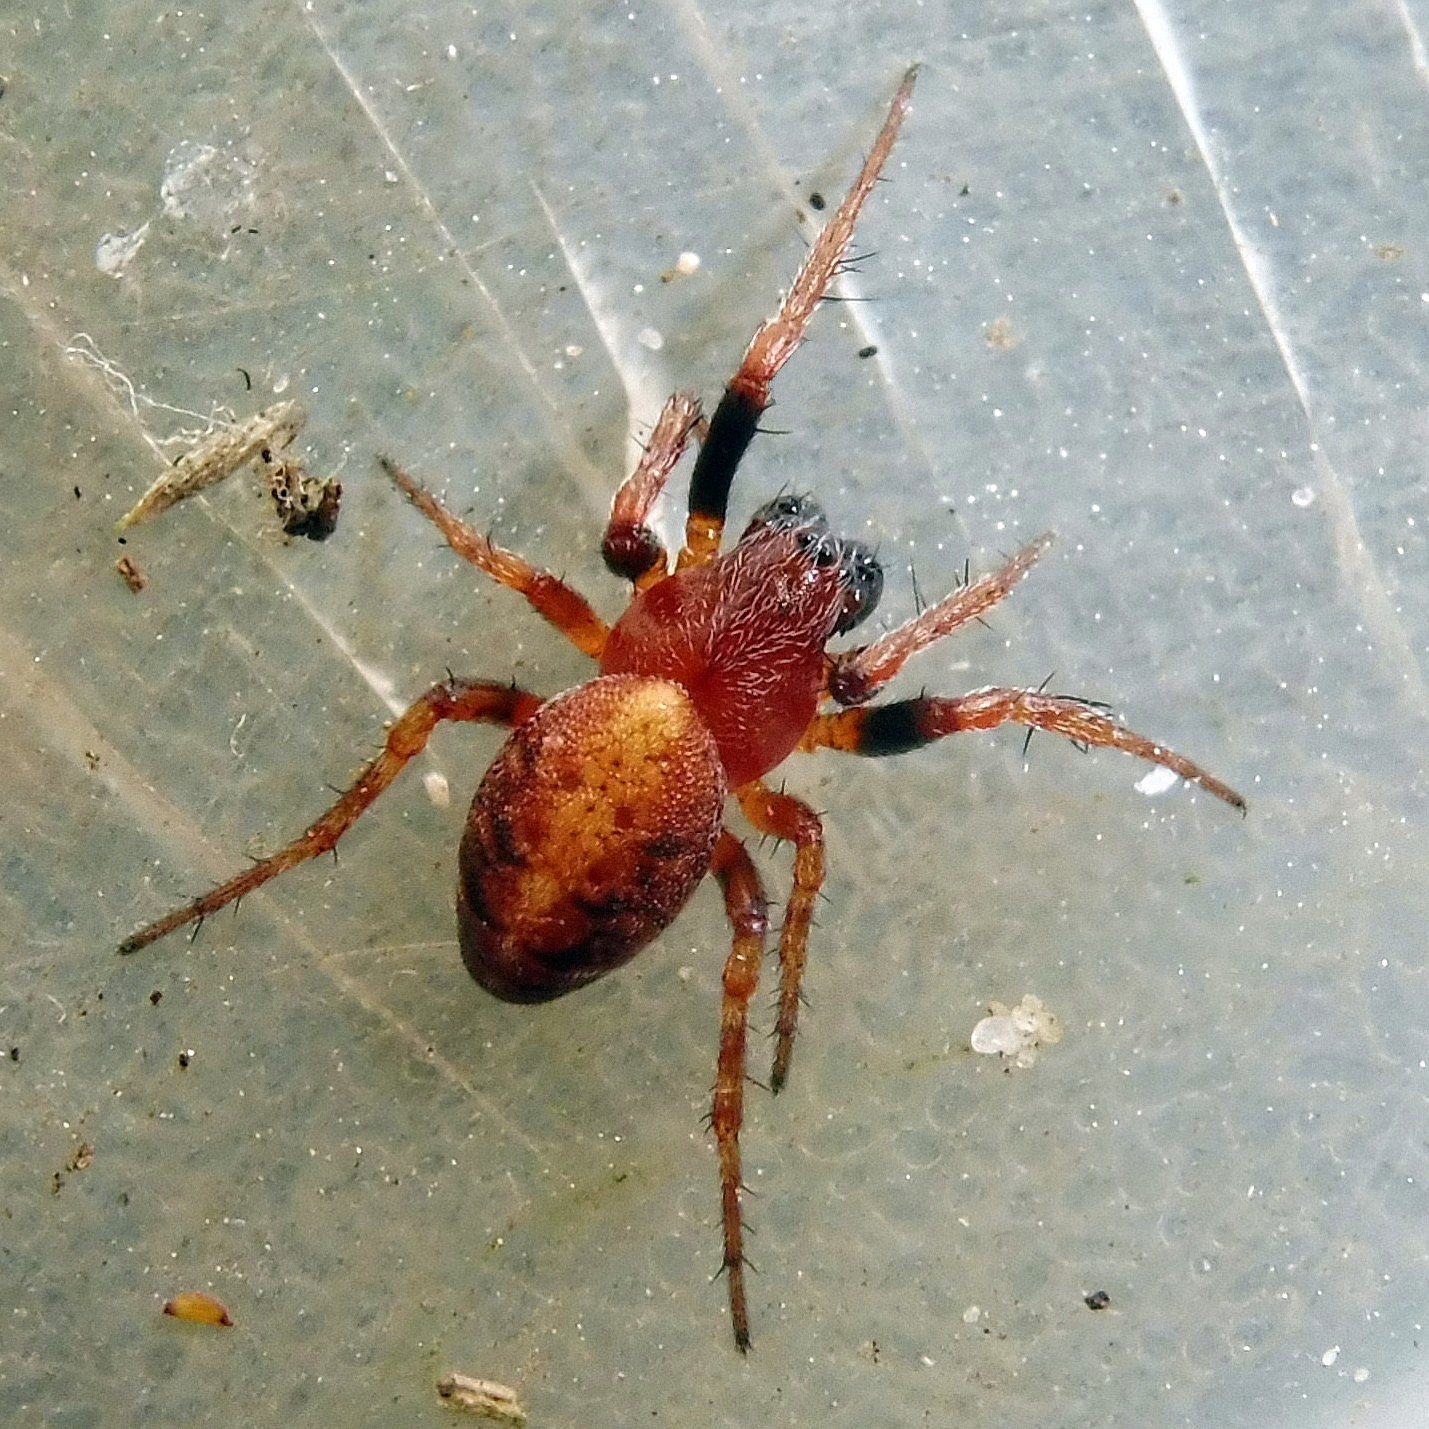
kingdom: Animalia
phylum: Arthropoda
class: Arachnida
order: Araneae
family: Araneidae
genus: Cercidia
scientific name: Cercidia prominens
